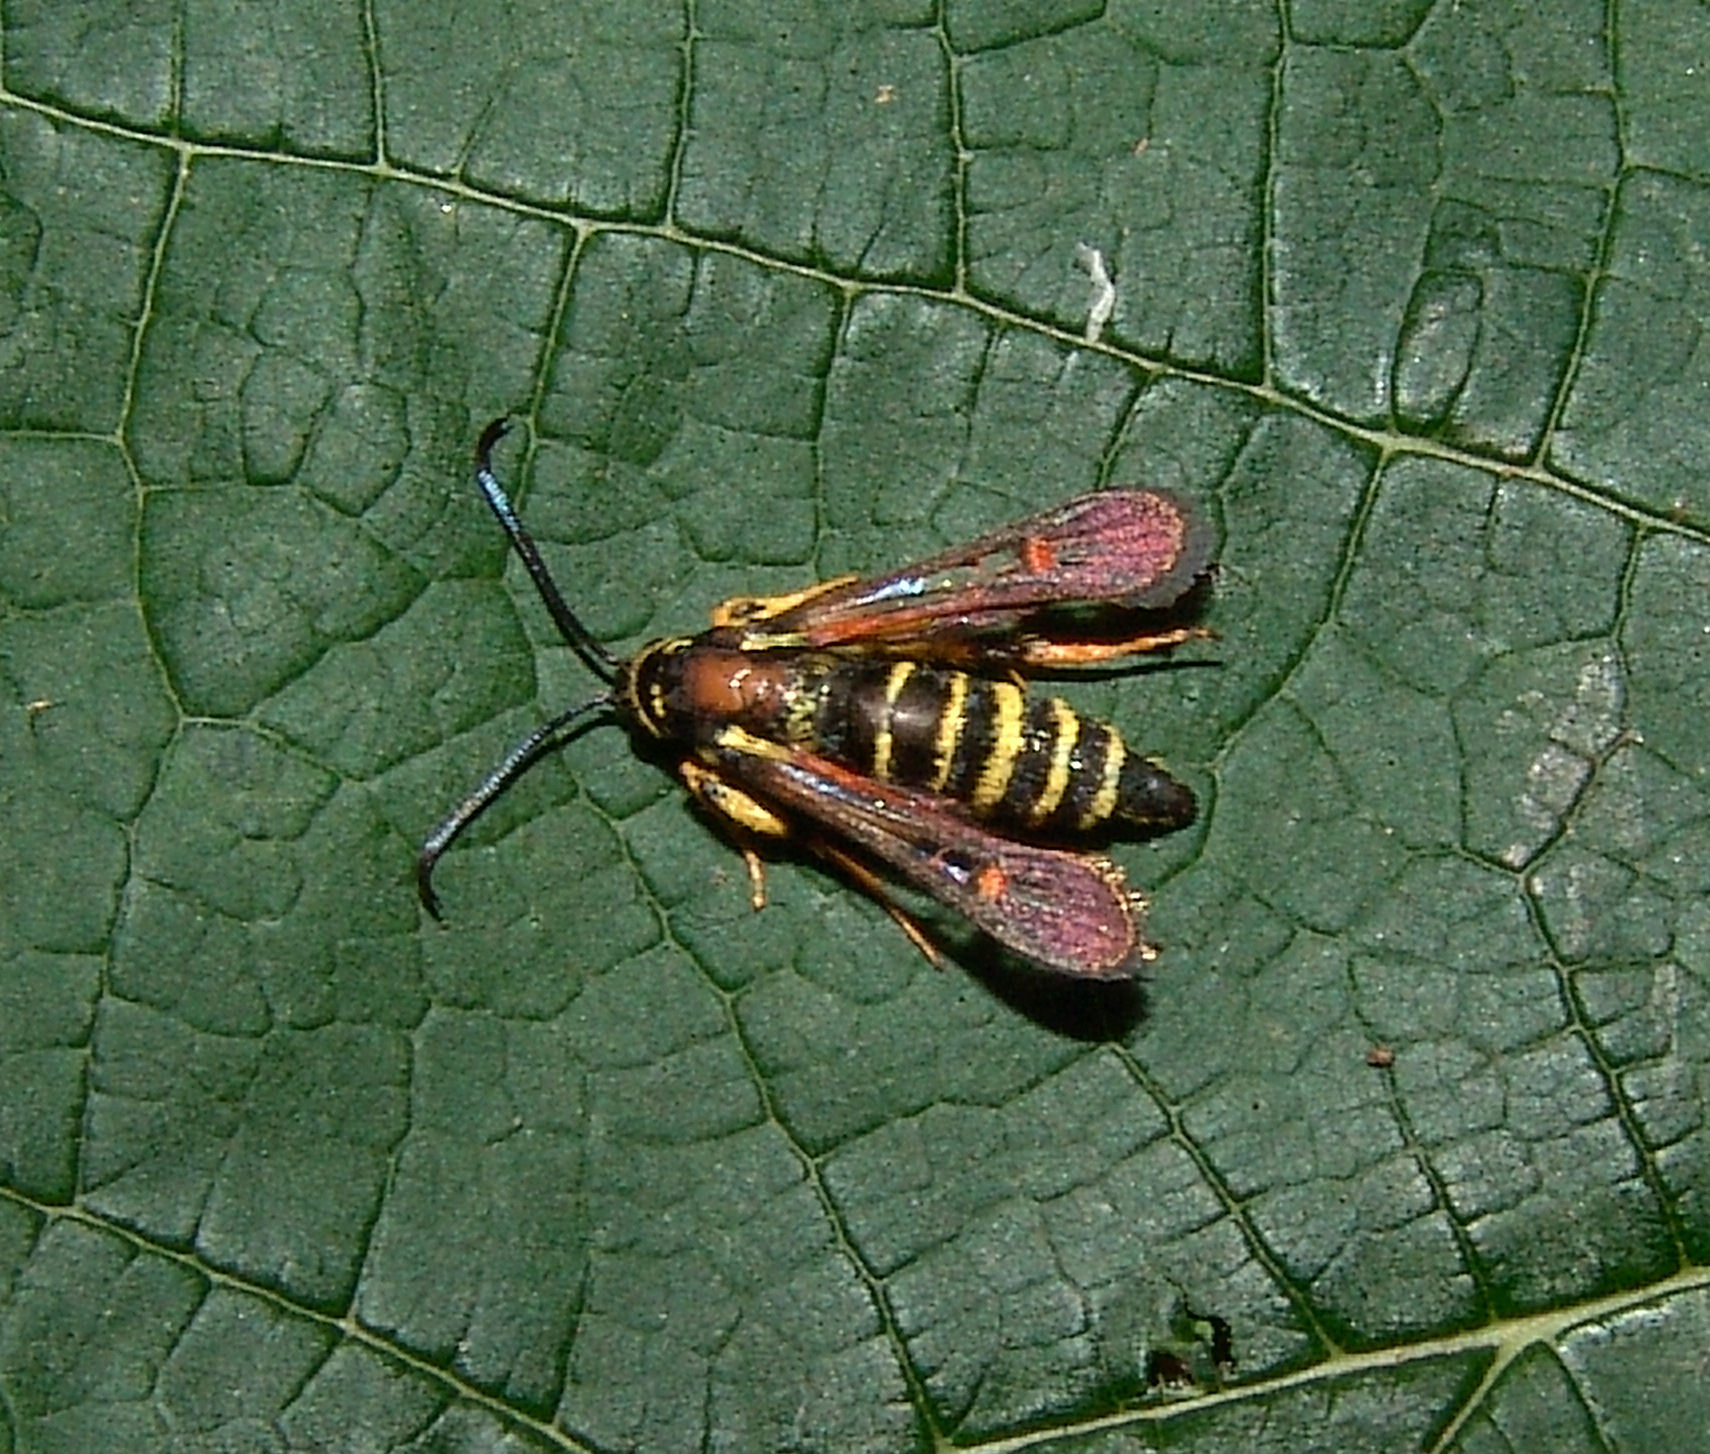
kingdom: Animalia
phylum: Arthropoda
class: Insecta
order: Lepidoptera
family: Sesiidae
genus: Synanthedon
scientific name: Synanthedon rileyana
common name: Riley's clearwing moth
